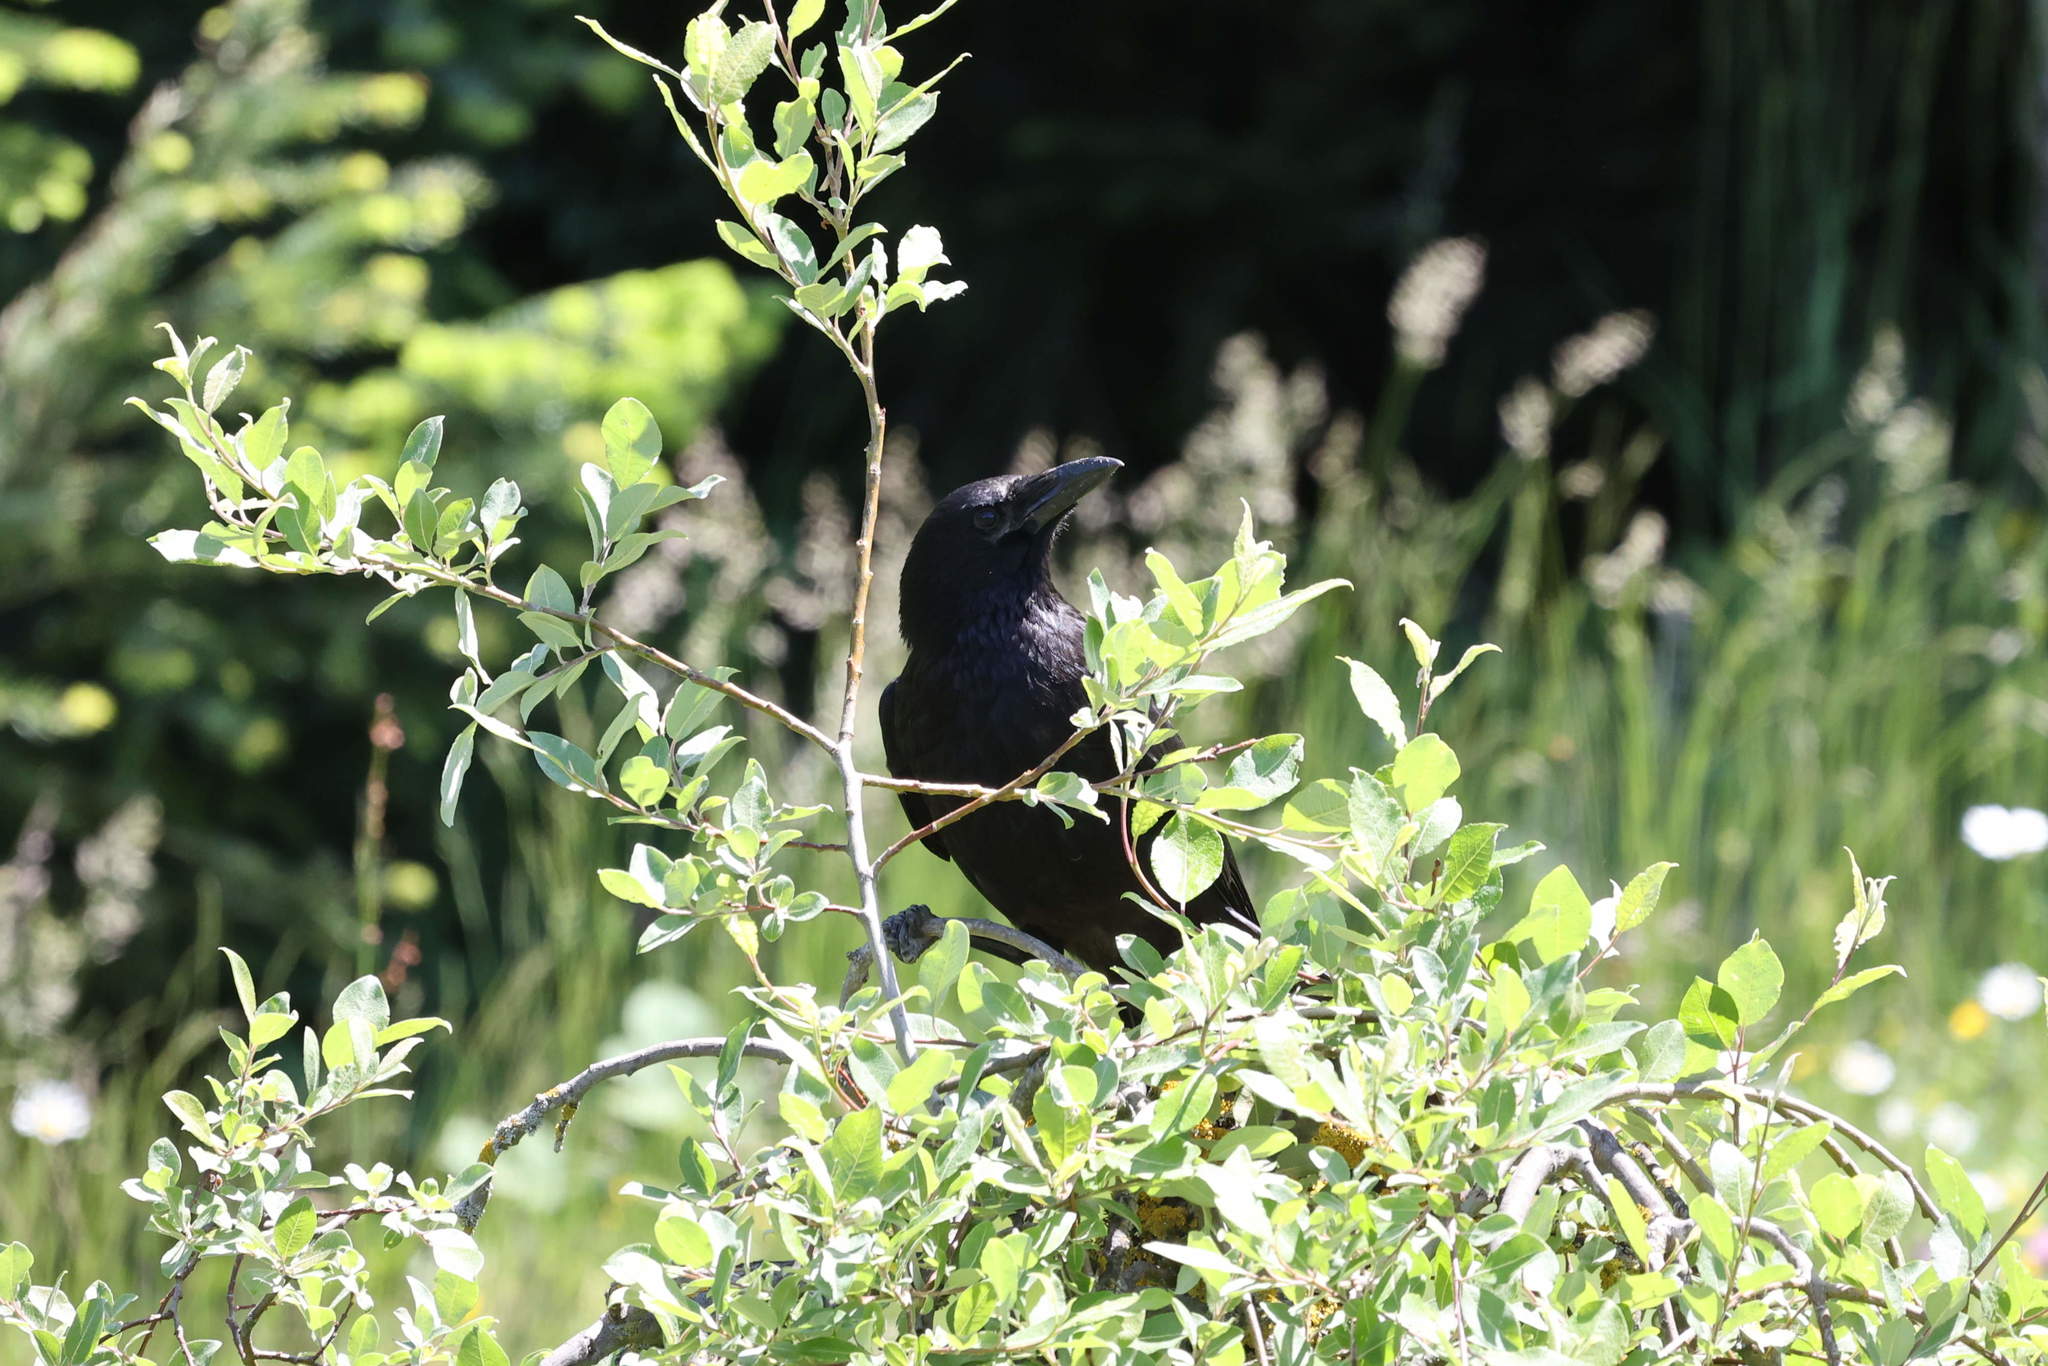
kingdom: Animalia
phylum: Chordata
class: Aves
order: Passeriformes
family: Corvidae
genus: Corvus
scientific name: Corvus corone
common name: Carrion crow
